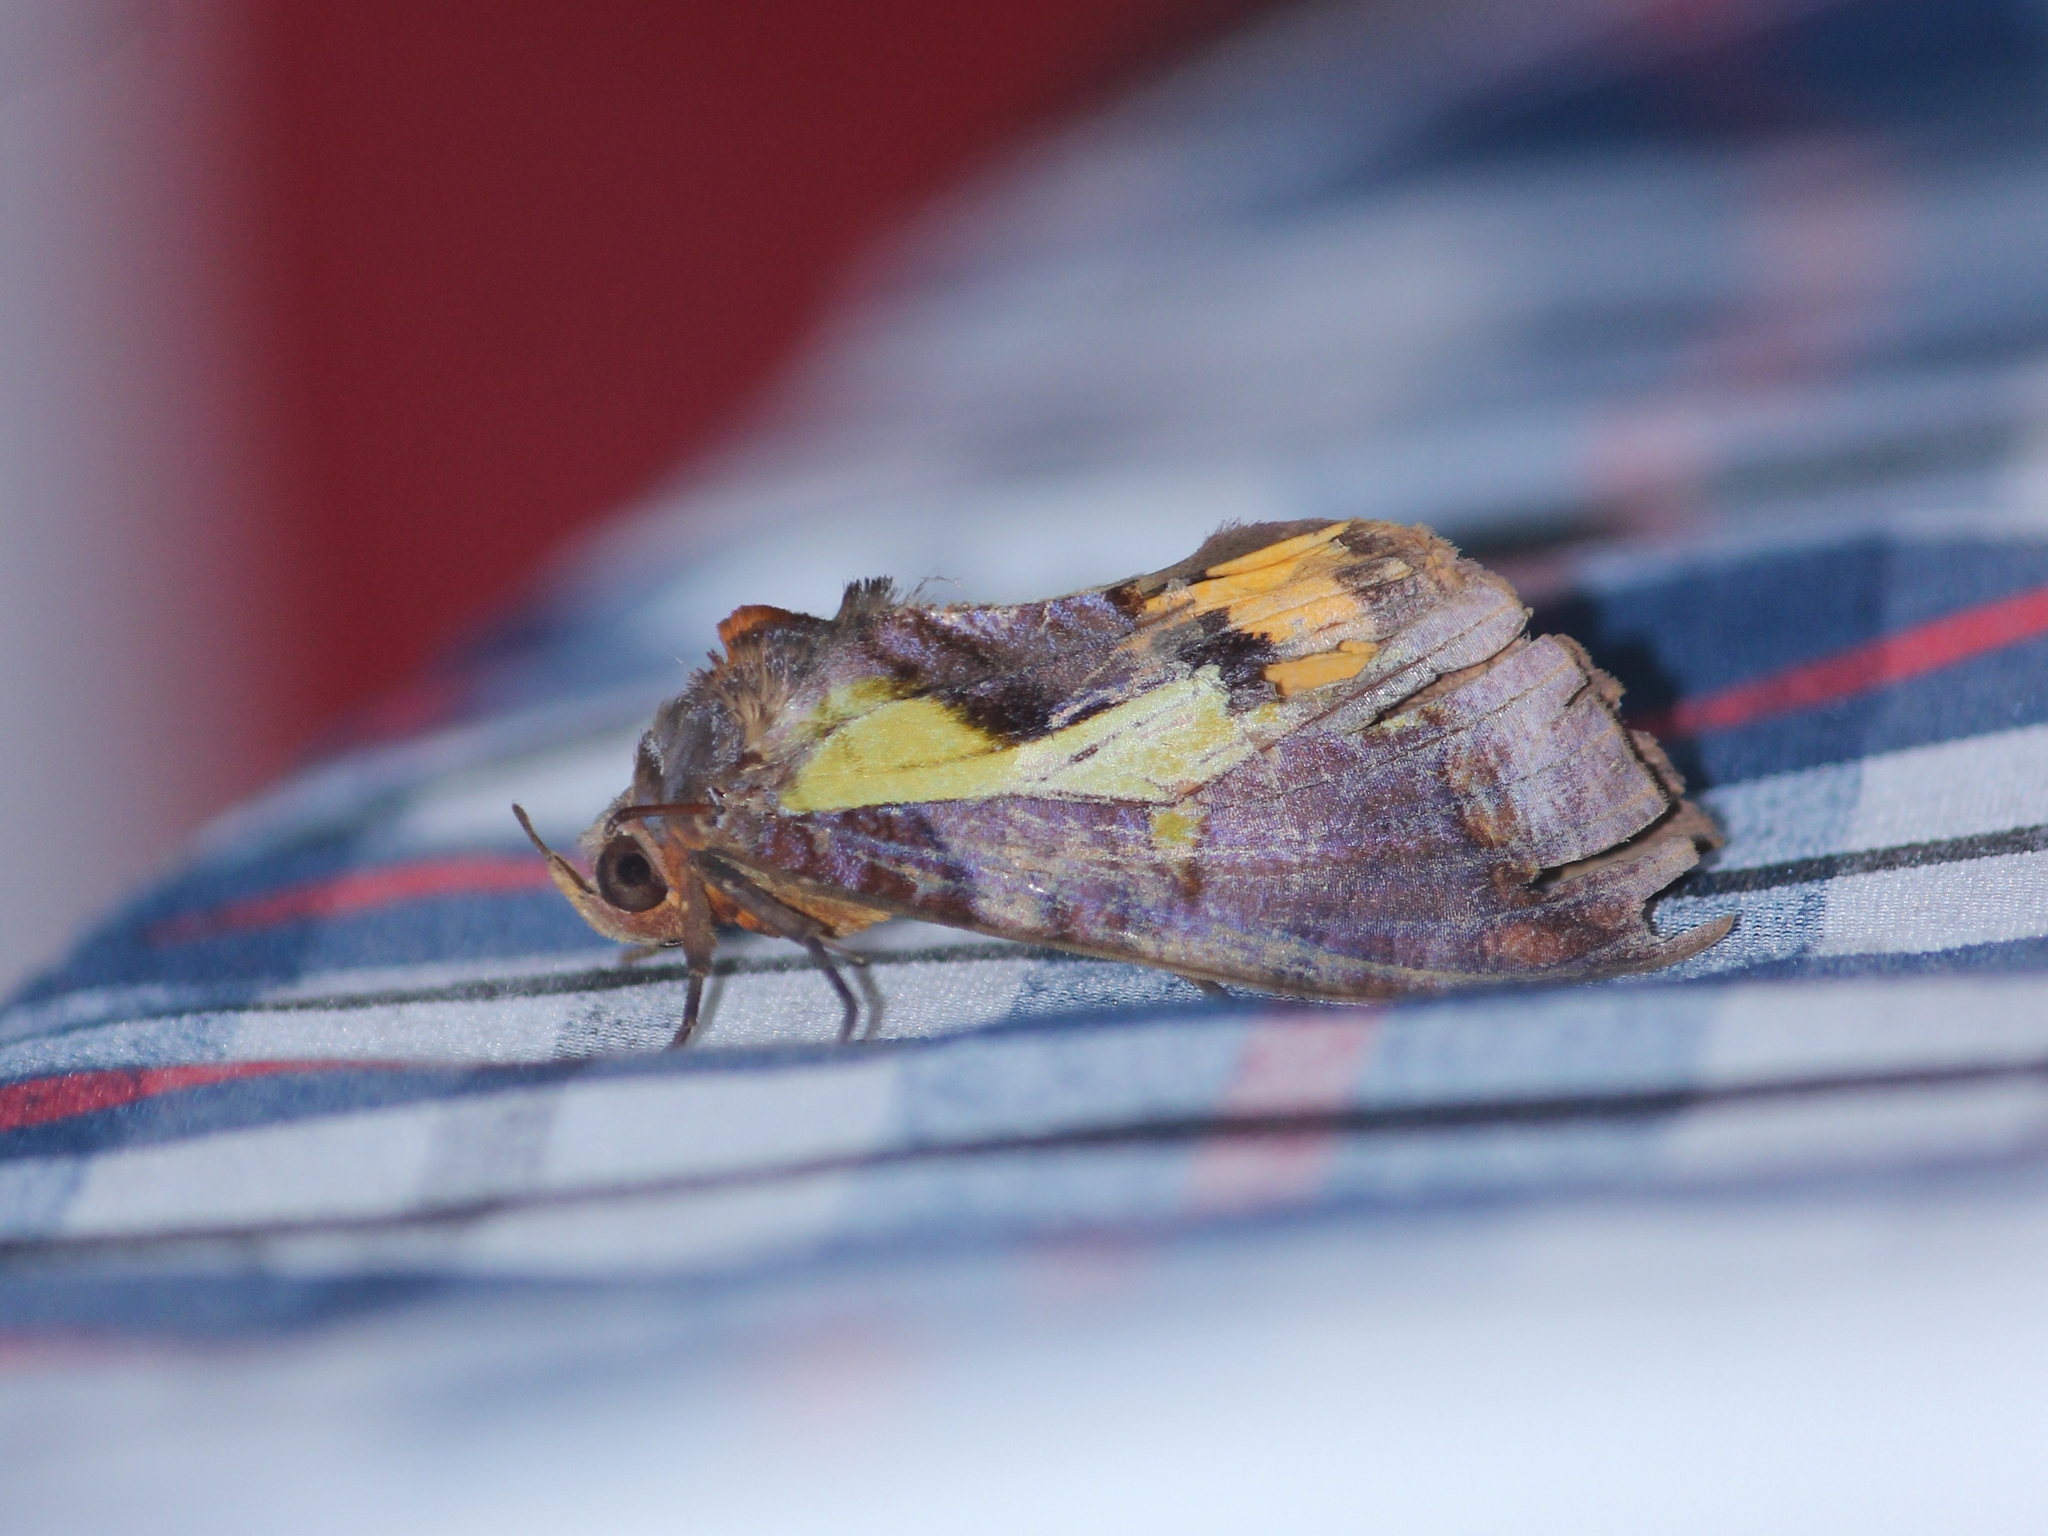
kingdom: Animalia
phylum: Arthropoda
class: Insecta
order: Lepidoptera
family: Erebidae
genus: Eudocima
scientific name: Eudocima homaena
